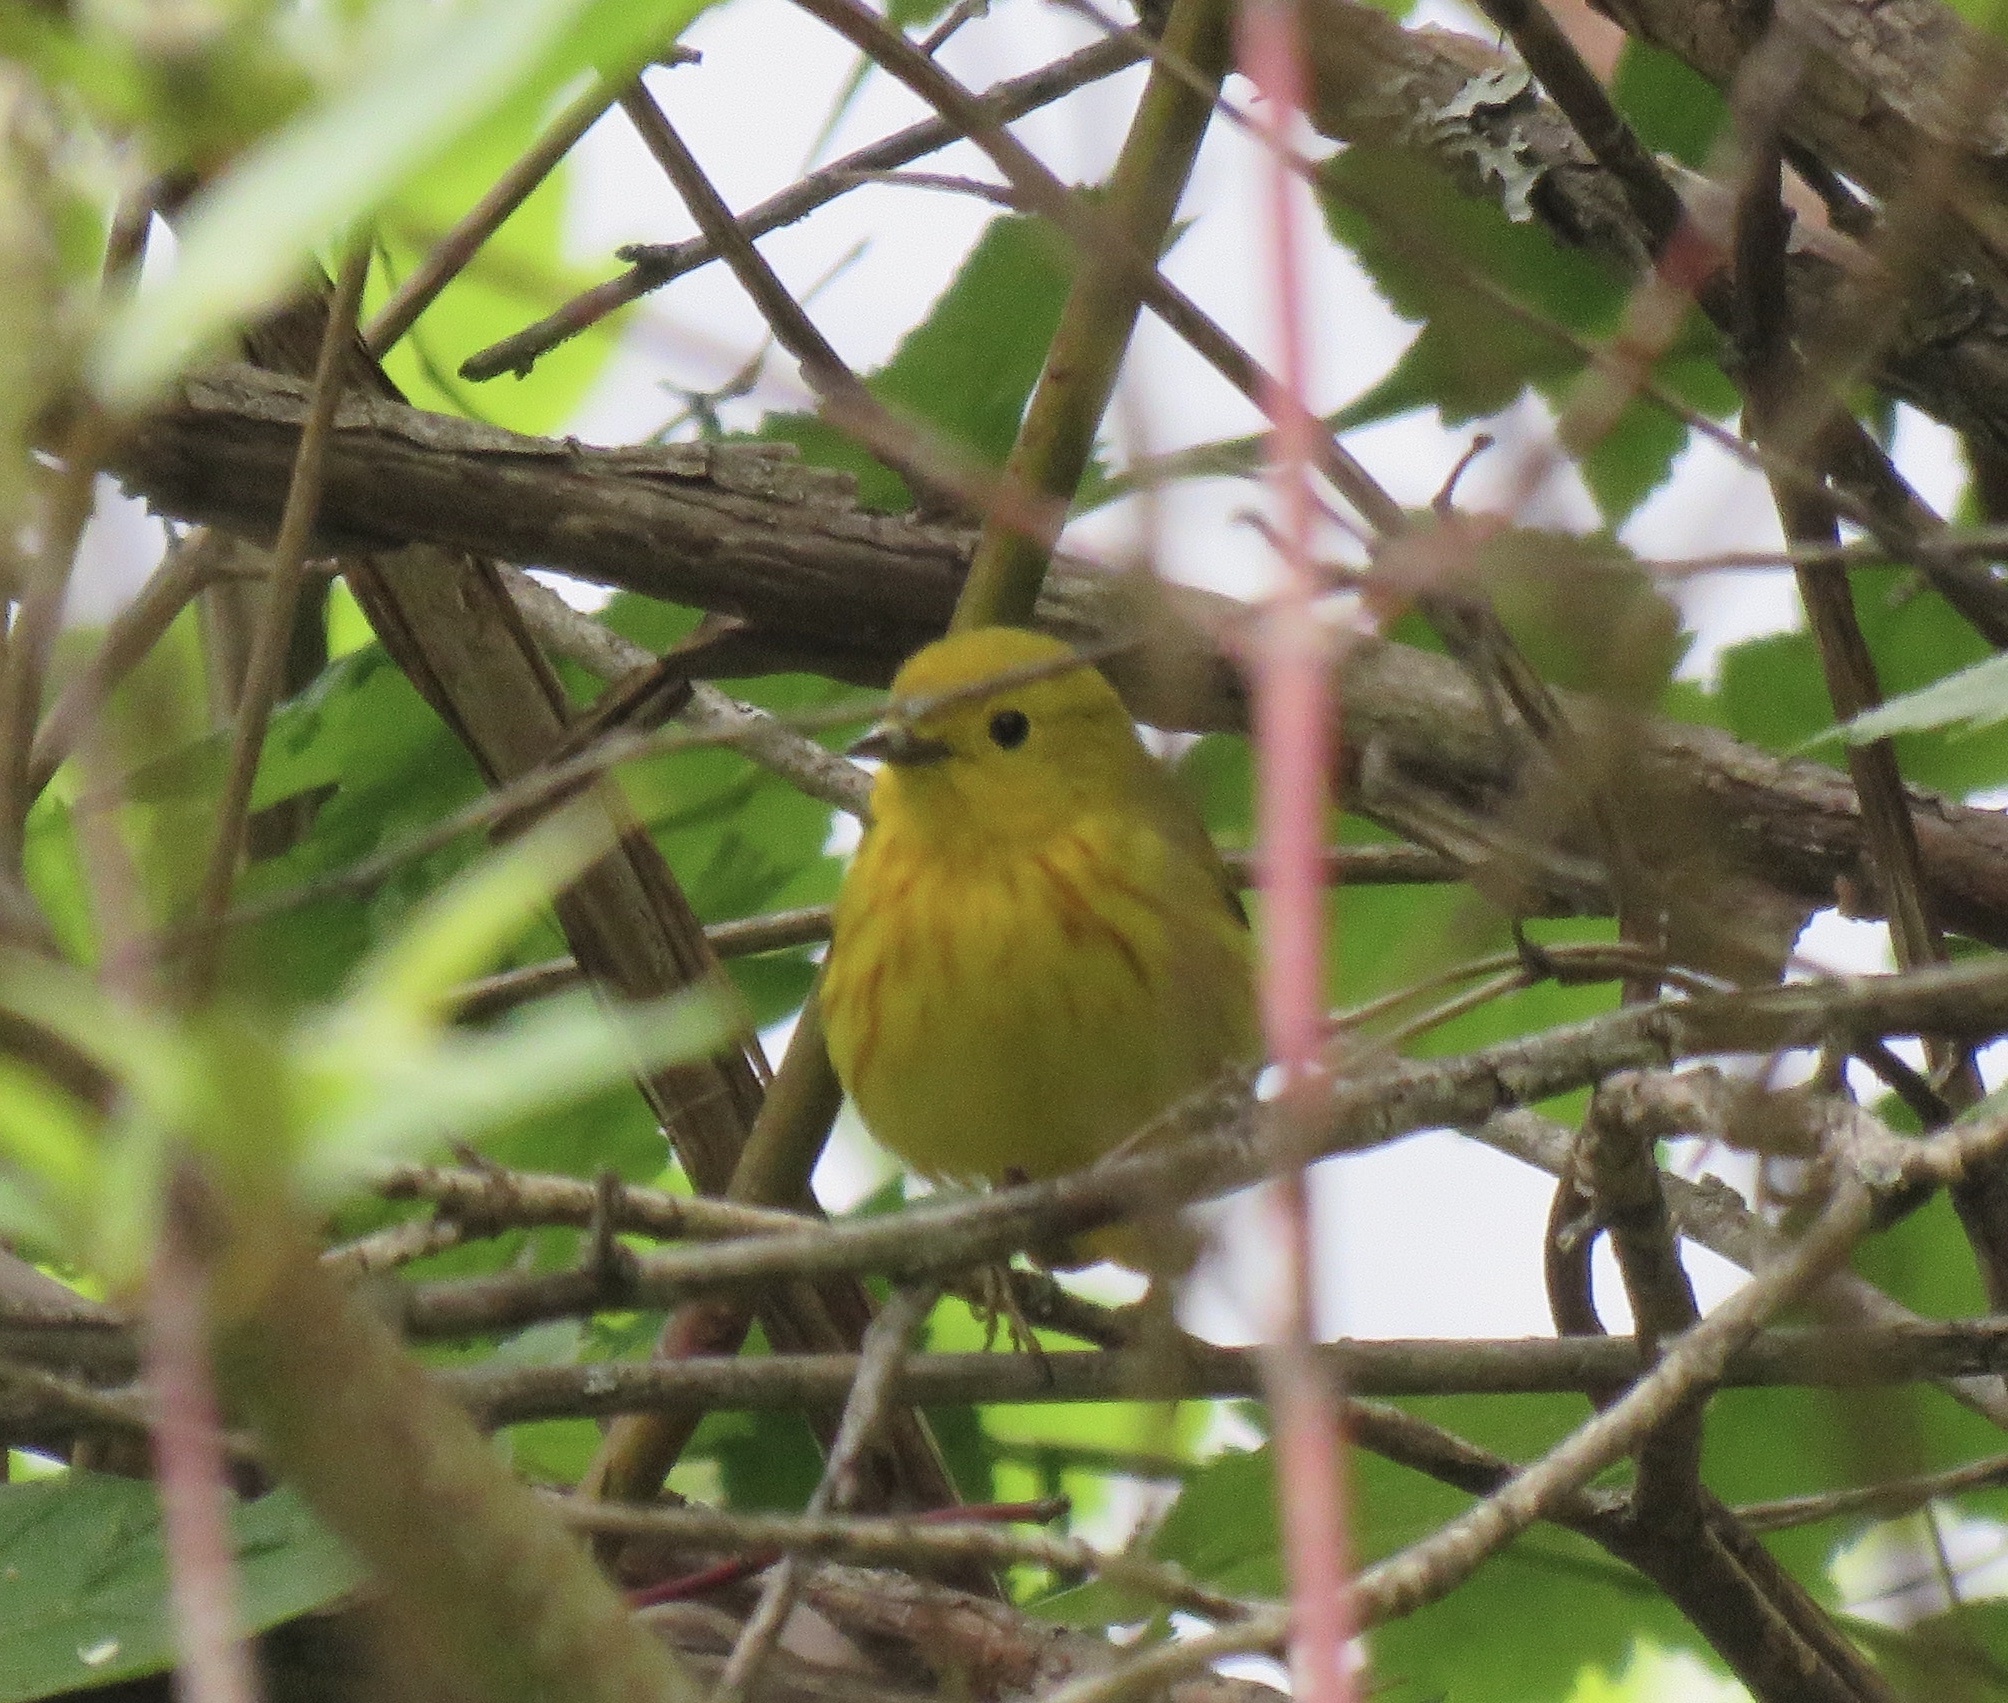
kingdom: Animalia
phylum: Chordata
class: Aves
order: Passeriformes
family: Parulidae
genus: Setophaga
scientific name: Setophaga petechia
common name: Yellow warbler
